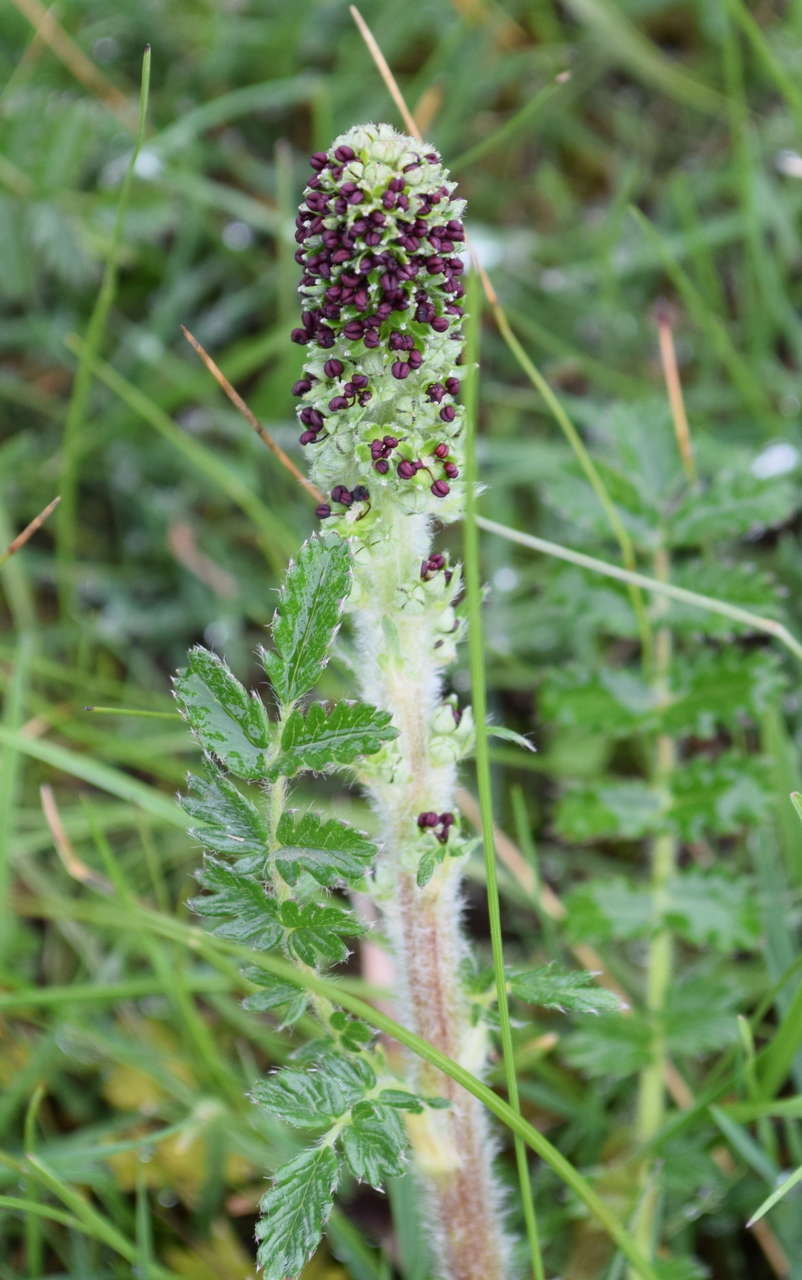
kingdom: Plantae
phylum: Tracheophyta
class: Magnoliopsida
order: Rosales
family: Rosaceae
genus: Acaena
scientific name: Acaena agnipila
